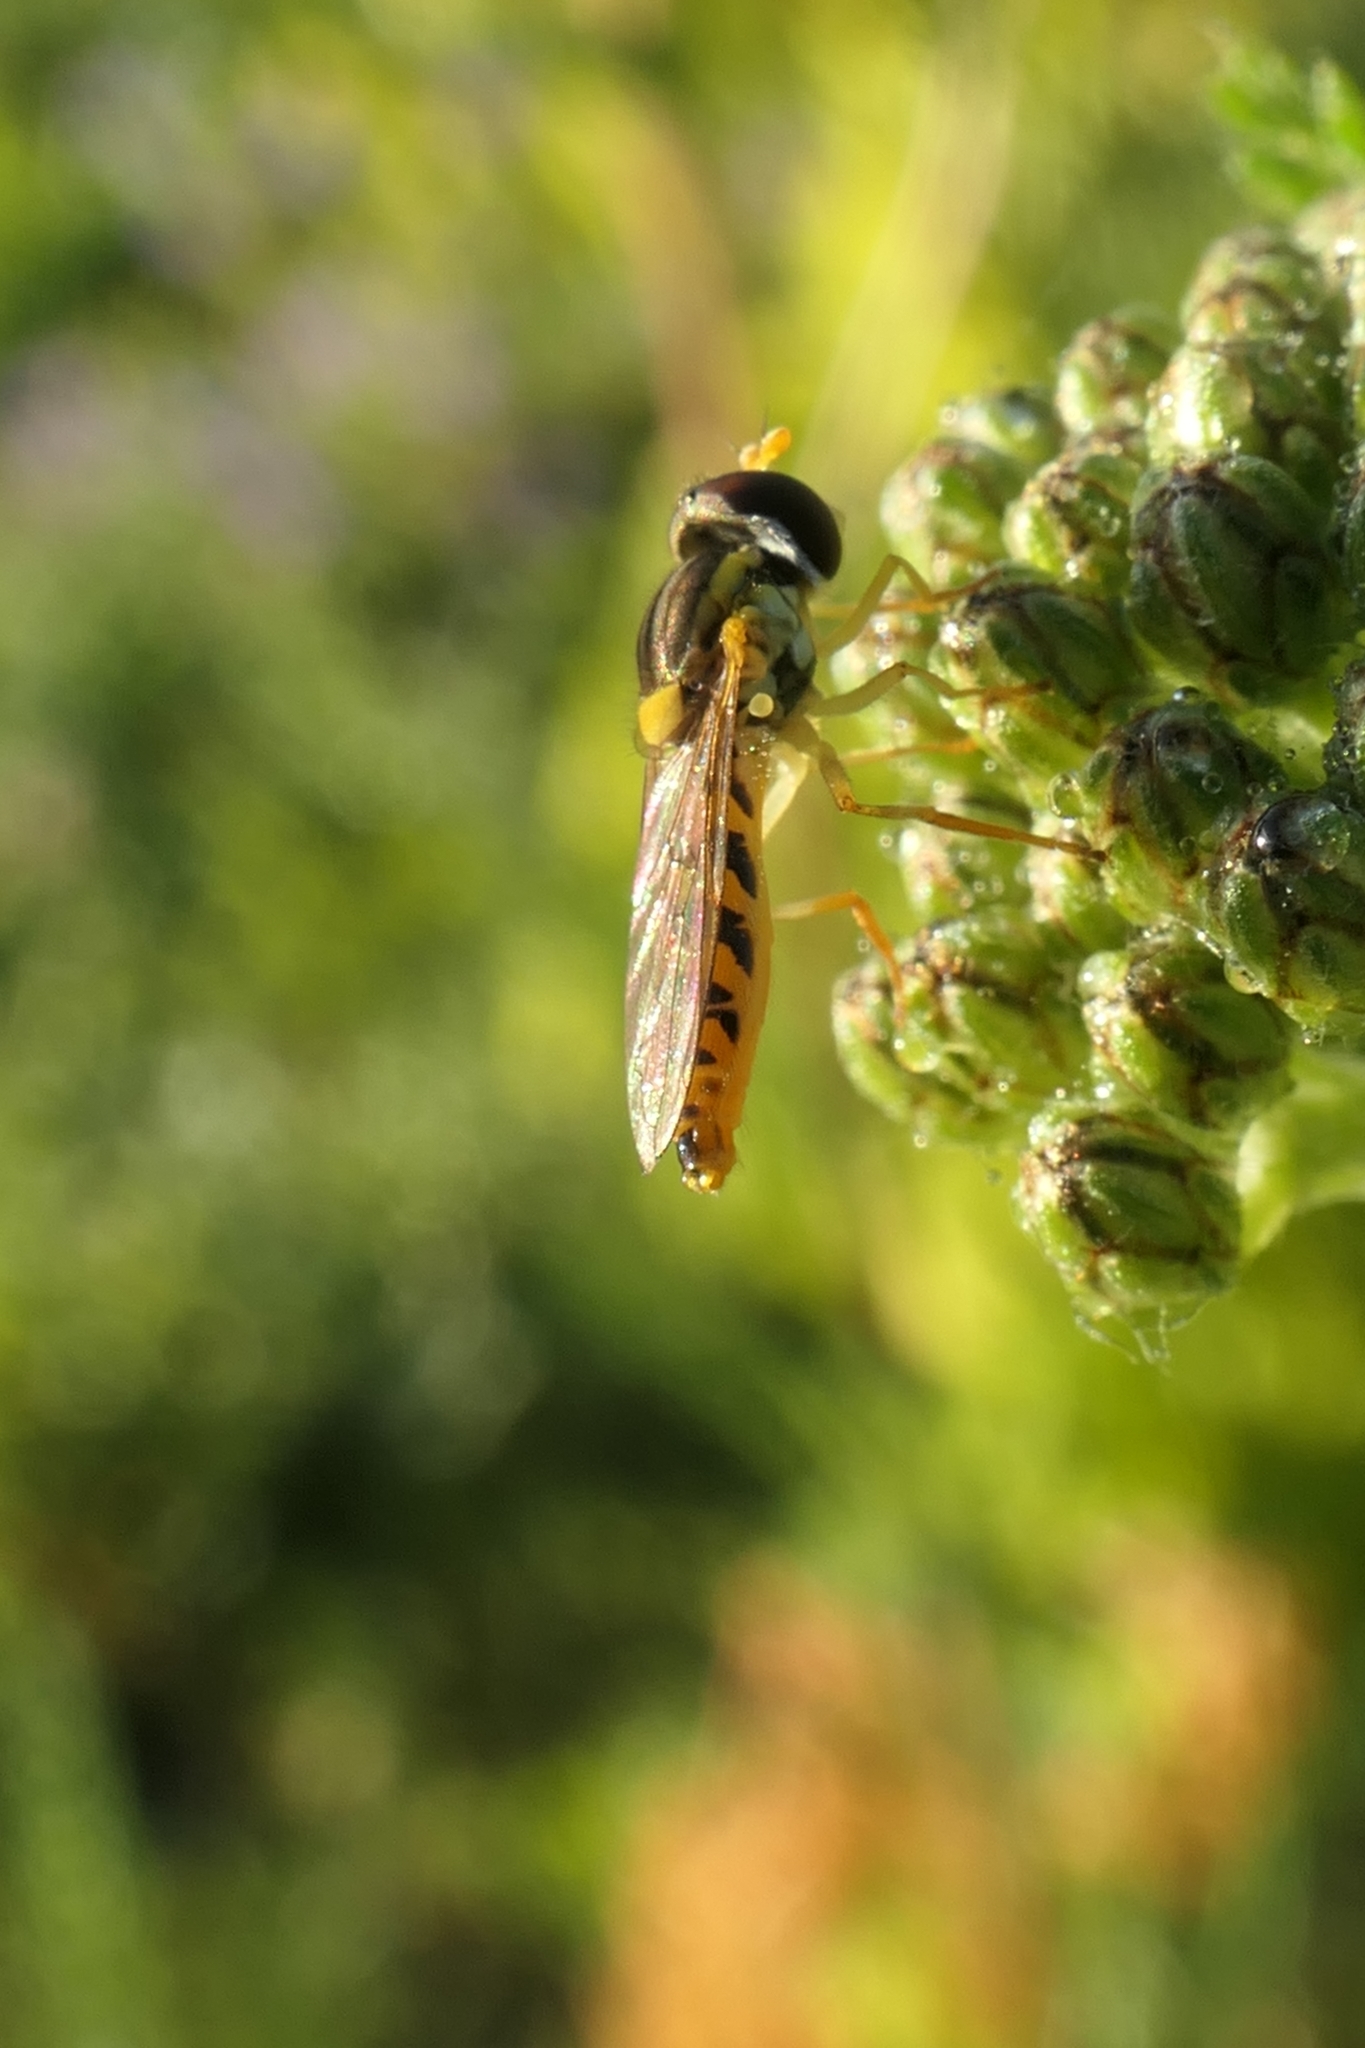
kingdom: Animalia
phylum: Arthropoda
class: Insecta
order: Diptera
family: Syrphidae
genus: Sphaerophoria
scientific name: Sphaerophoria macrogaster
